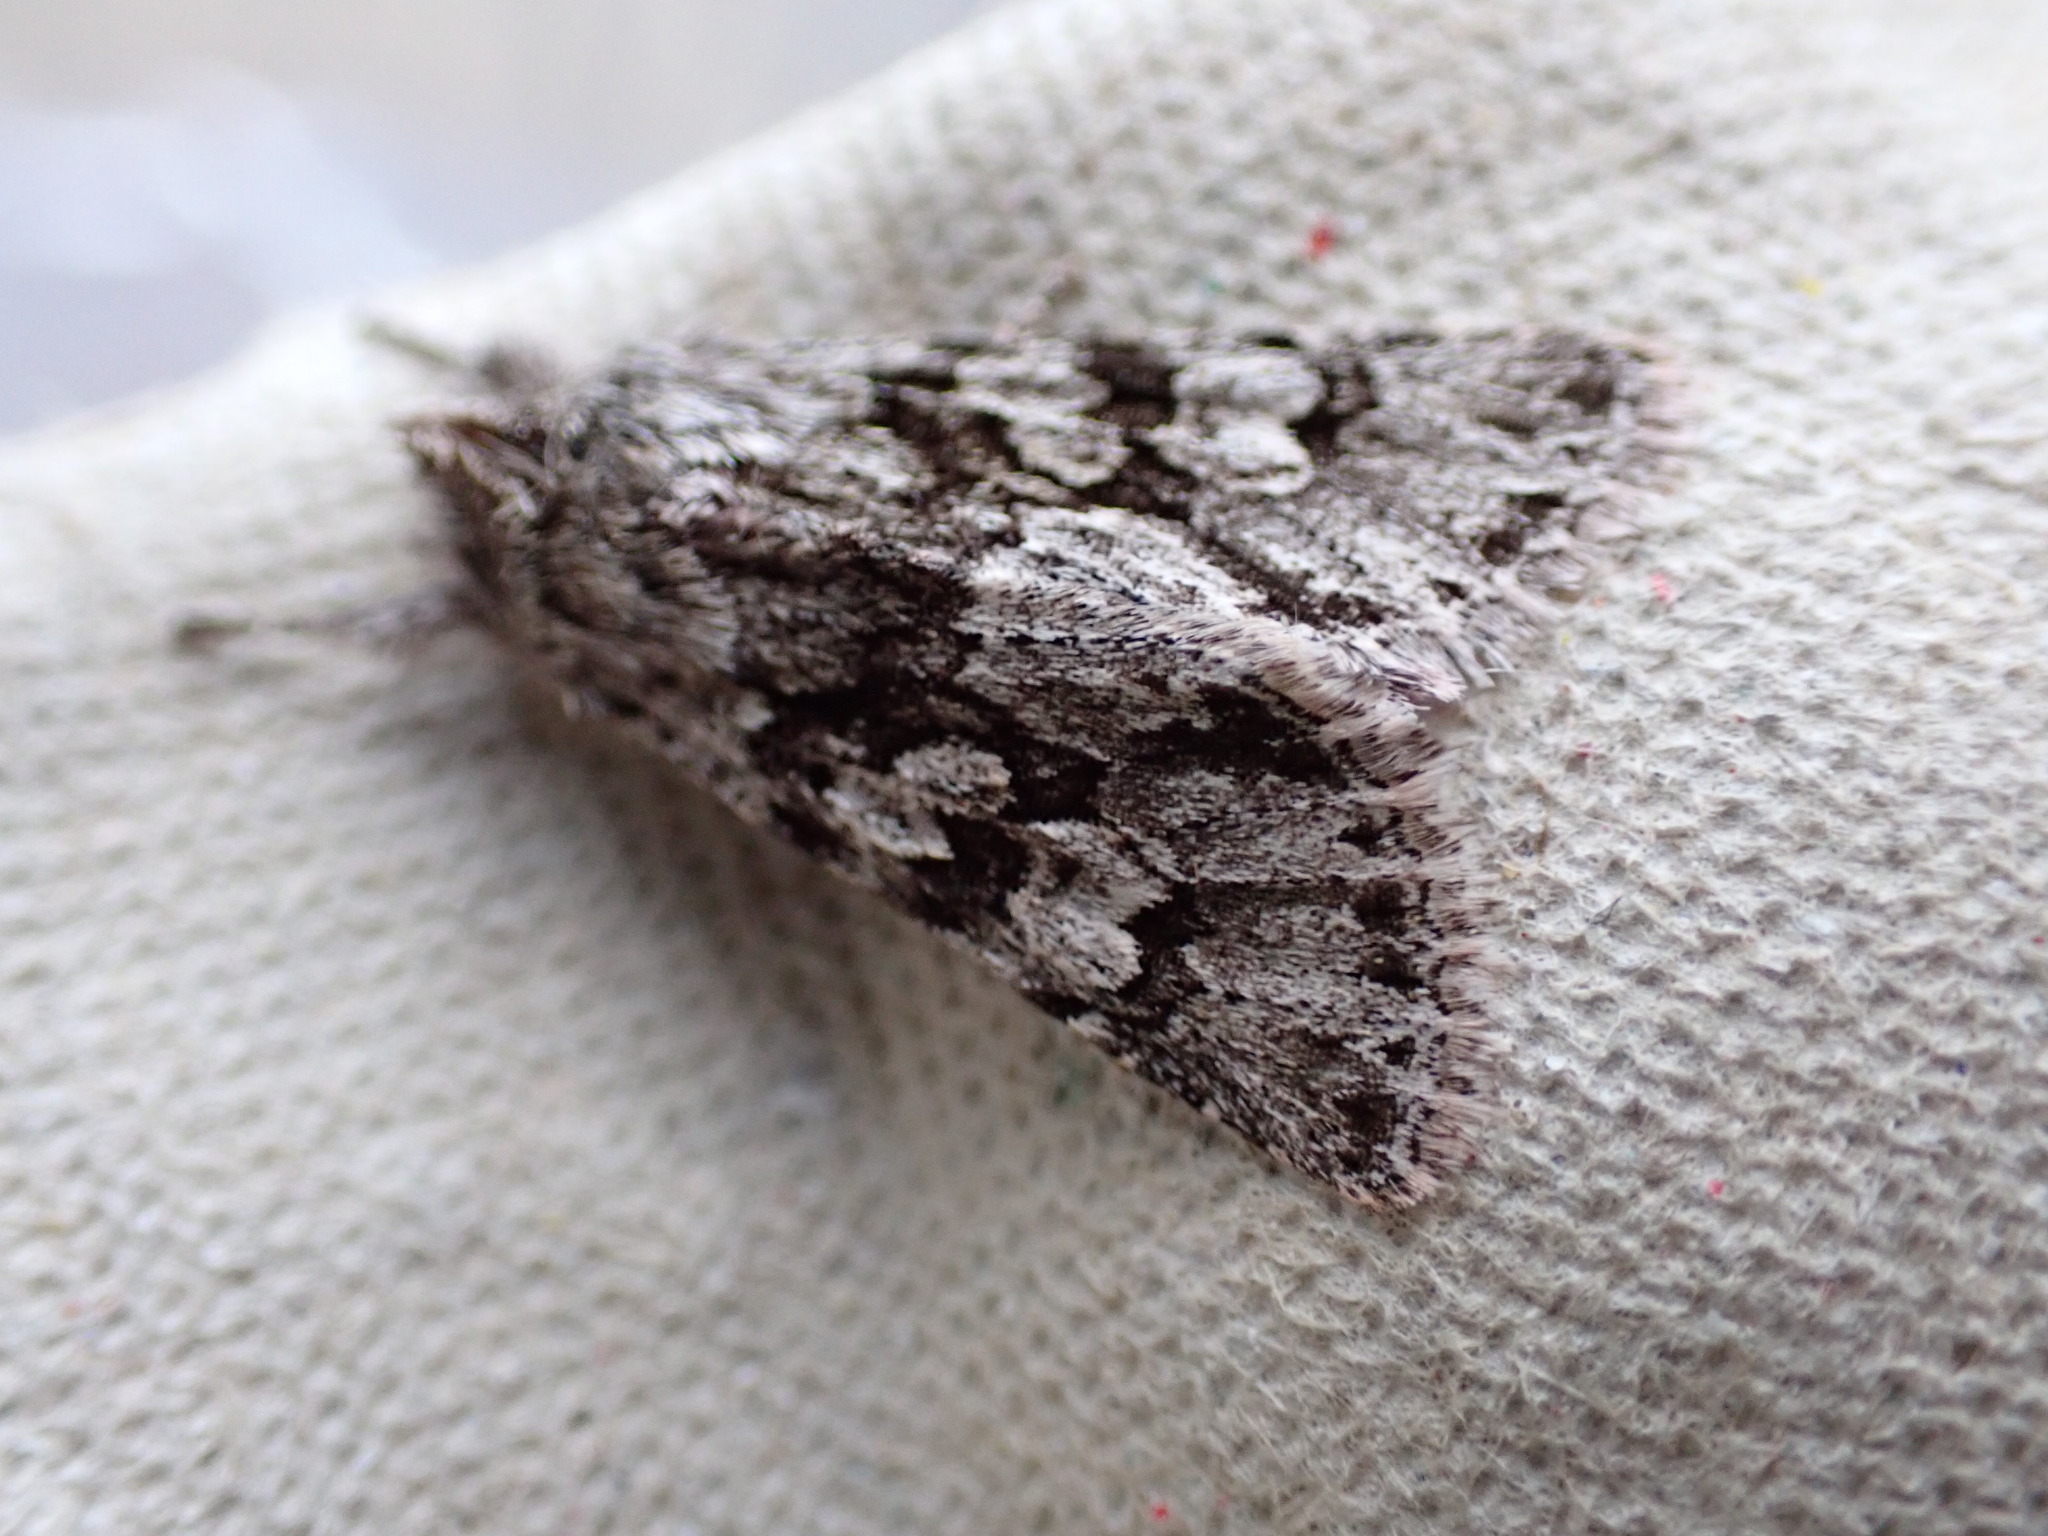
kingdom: Animalia
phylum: Arthropoda
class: Insecta
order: Lepidoptera
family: Noctuidae
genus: Xylocampa
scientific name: Xylocampa areola
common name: Early grey
